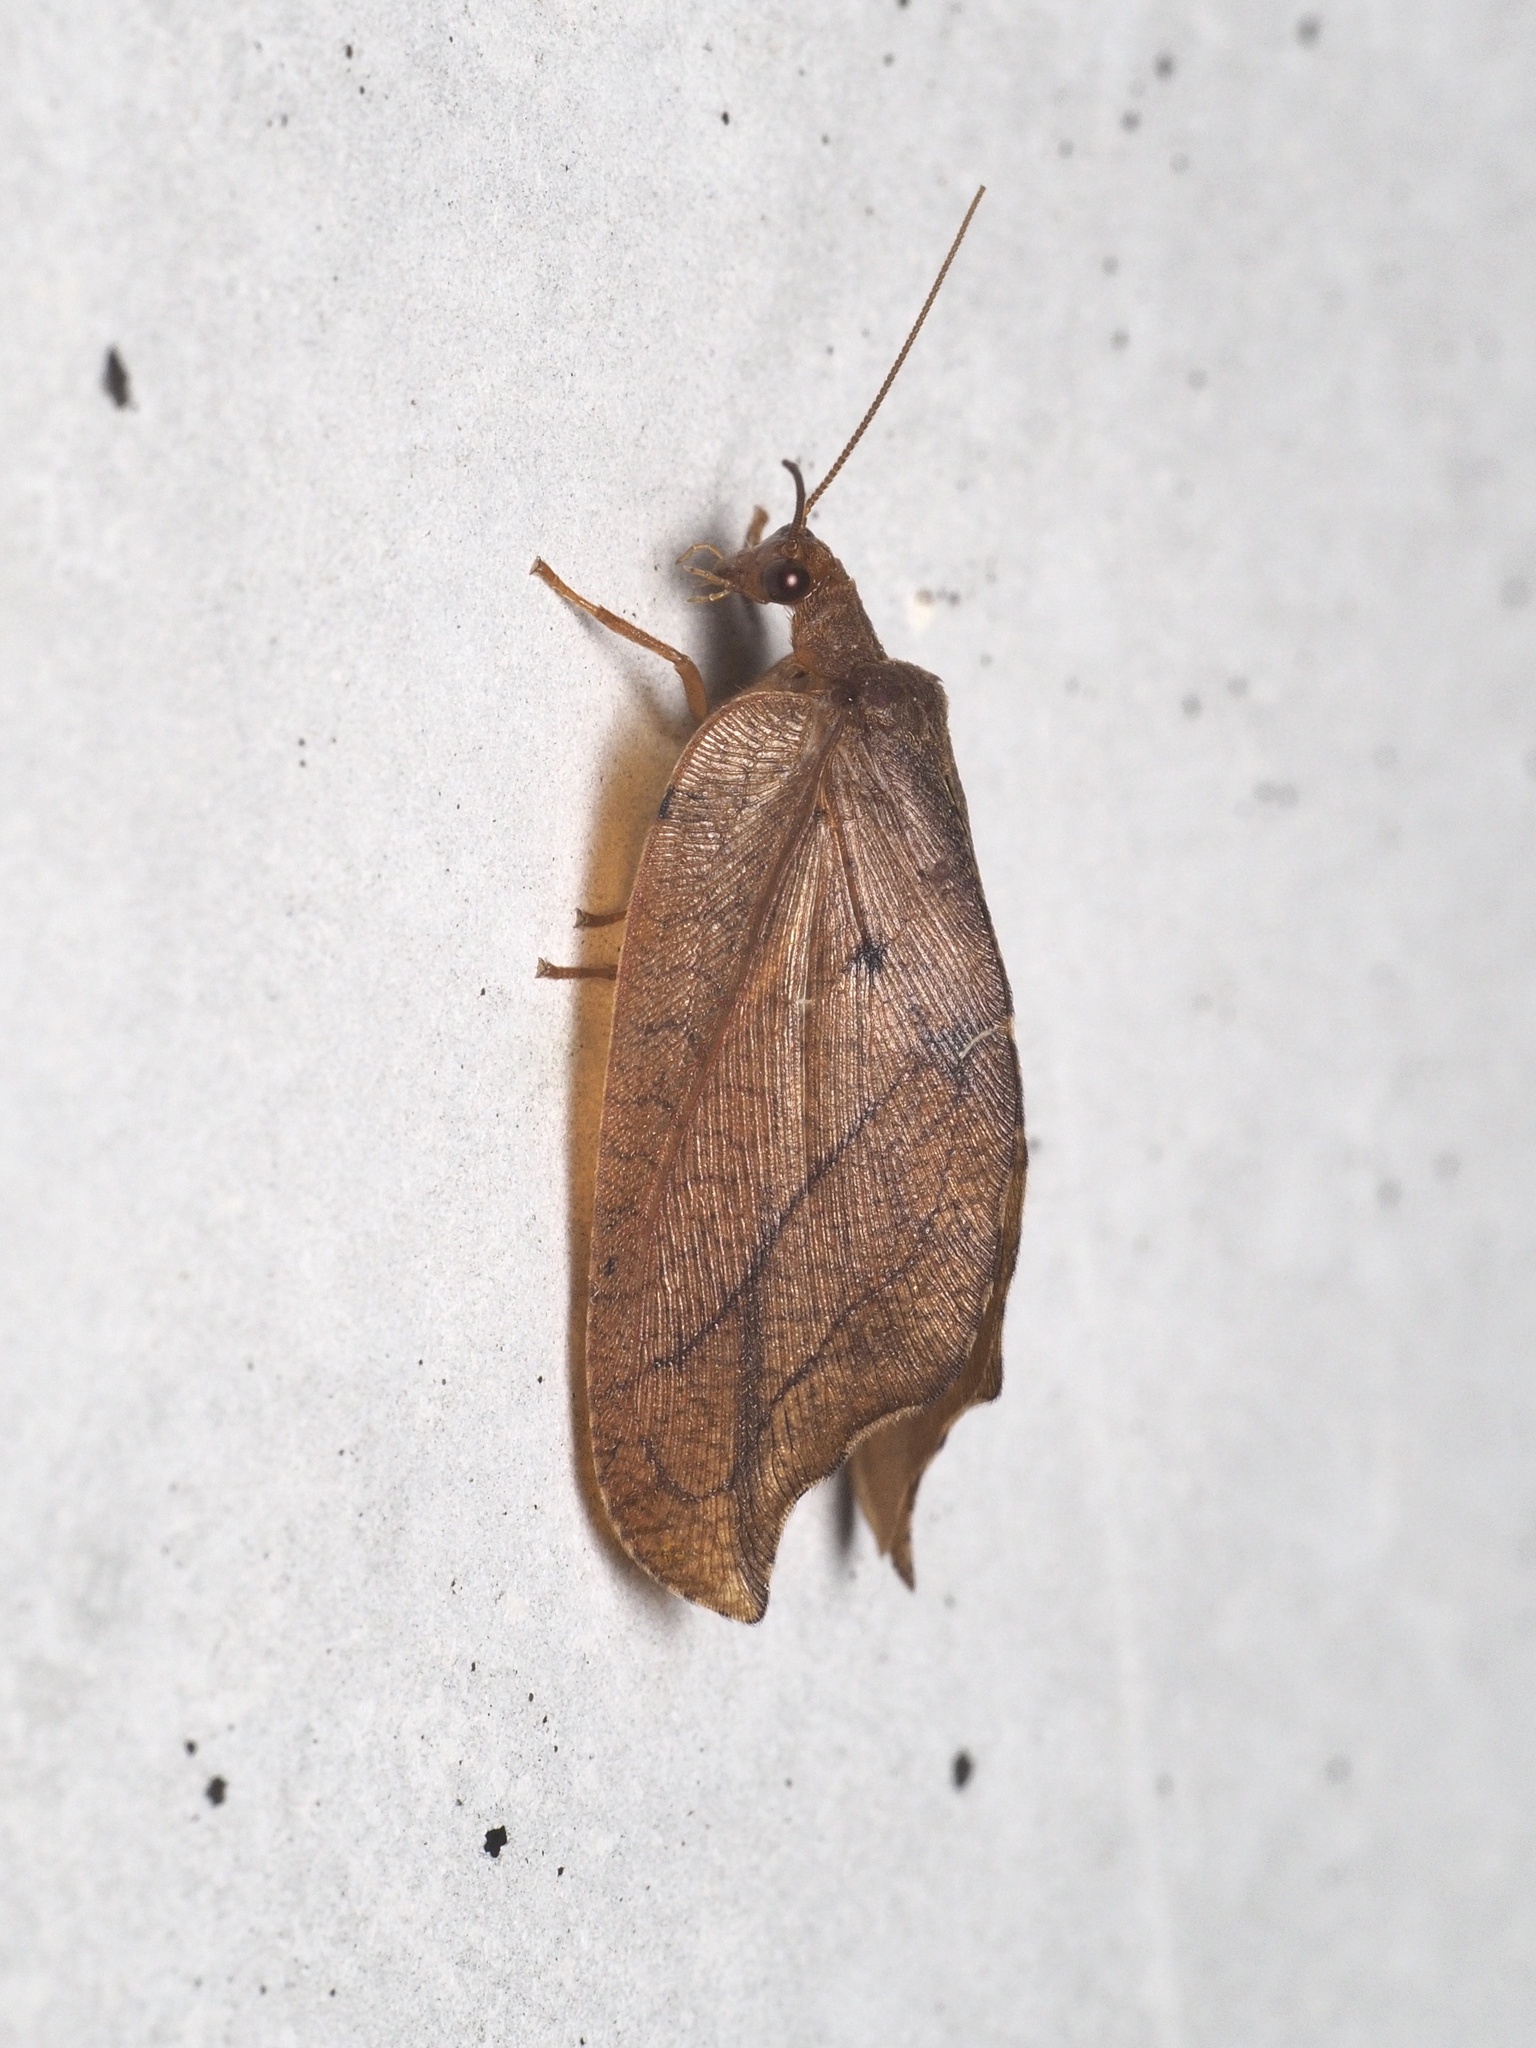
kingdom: Animalia
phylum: Arthropoda
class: Insecta
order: Neuroptera
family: Hemerobiidae
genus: Drepanepteryx
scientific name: Drepanepteryx phalaenoides
